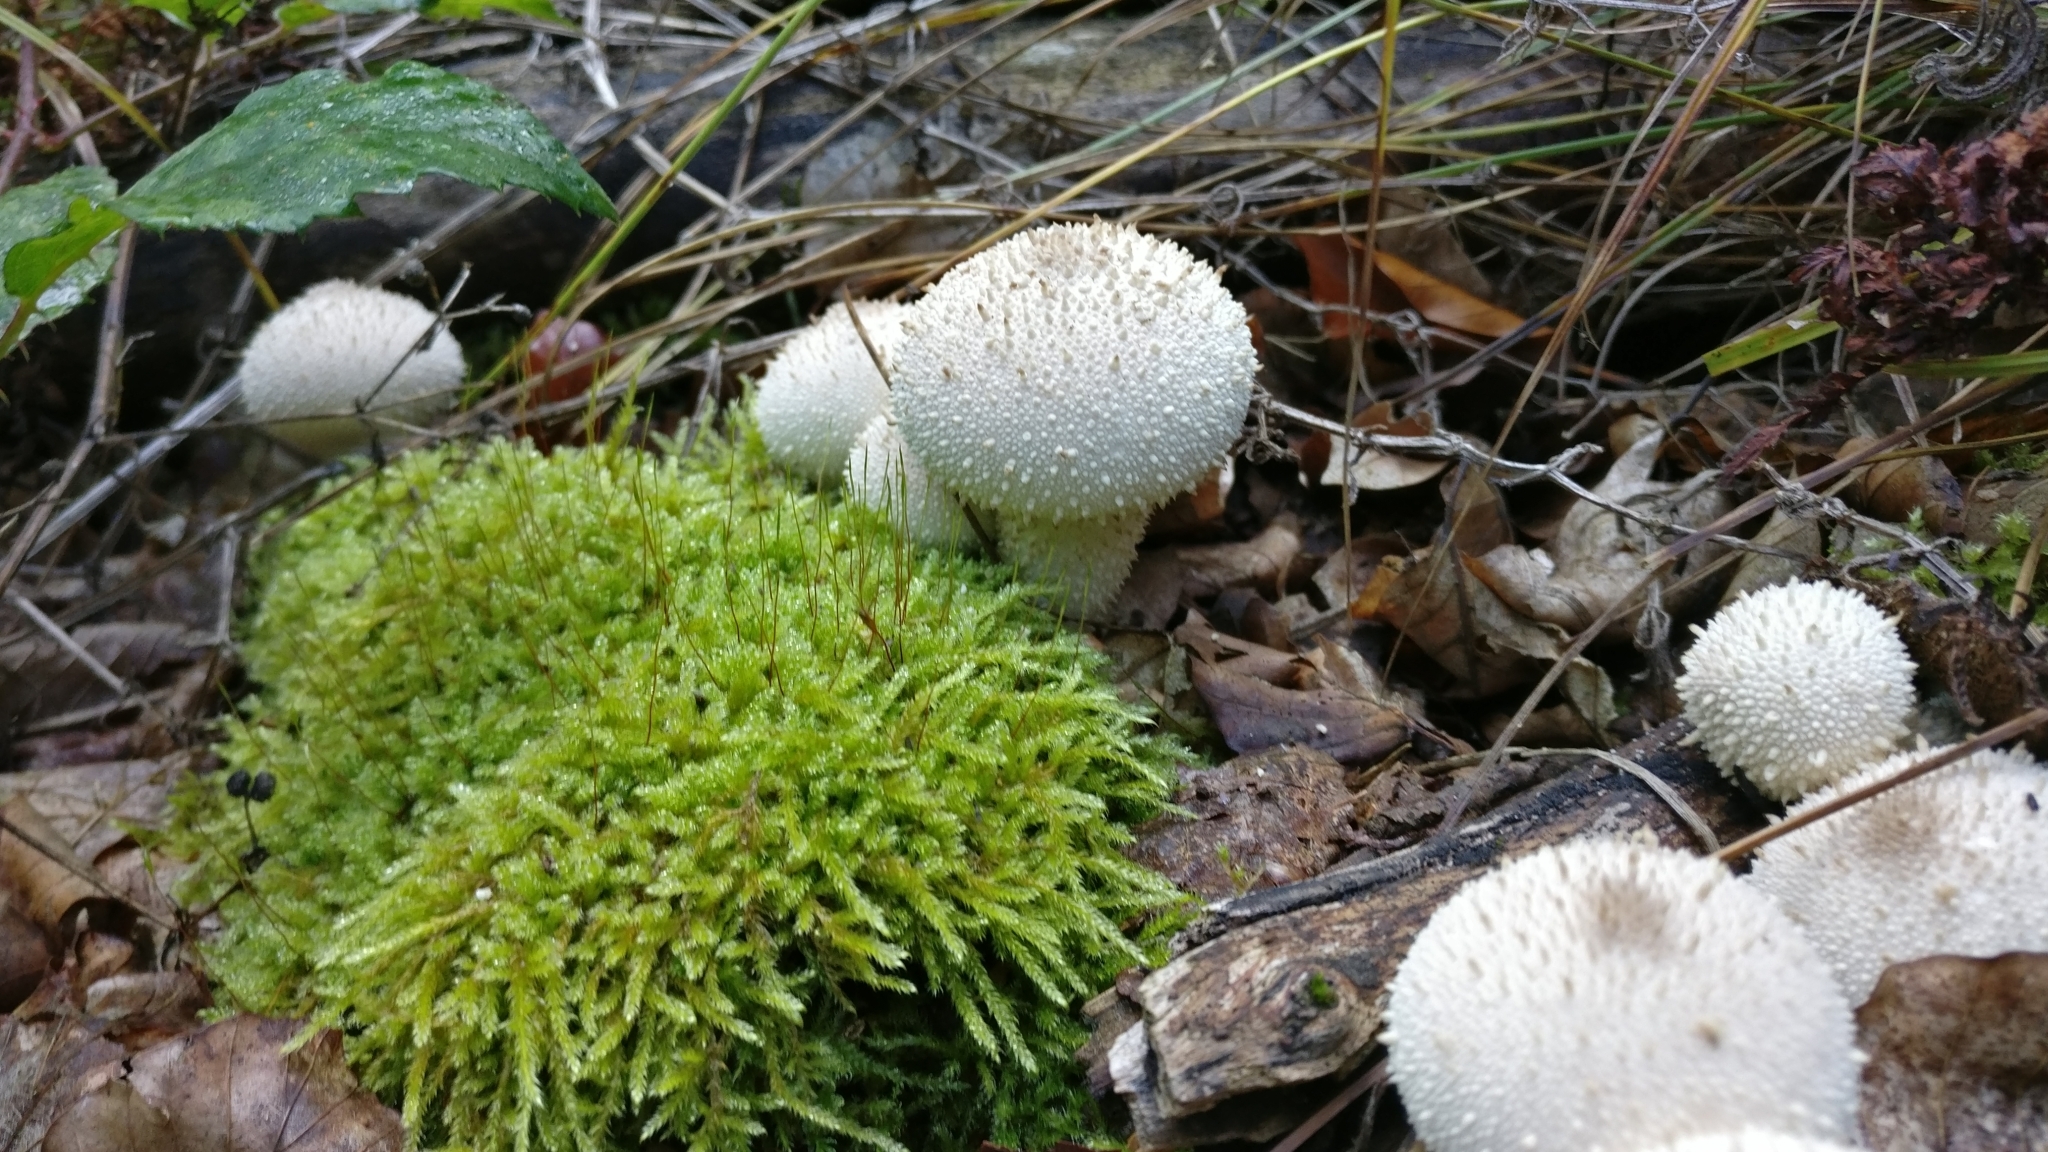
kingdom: Fungi
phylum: Basidiomycota
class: Agaricomycetes
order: Agaricales
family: Lycoperdaceae
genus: Lycoperdon
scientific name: Lycoperdon perlatum
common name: Common puffball
